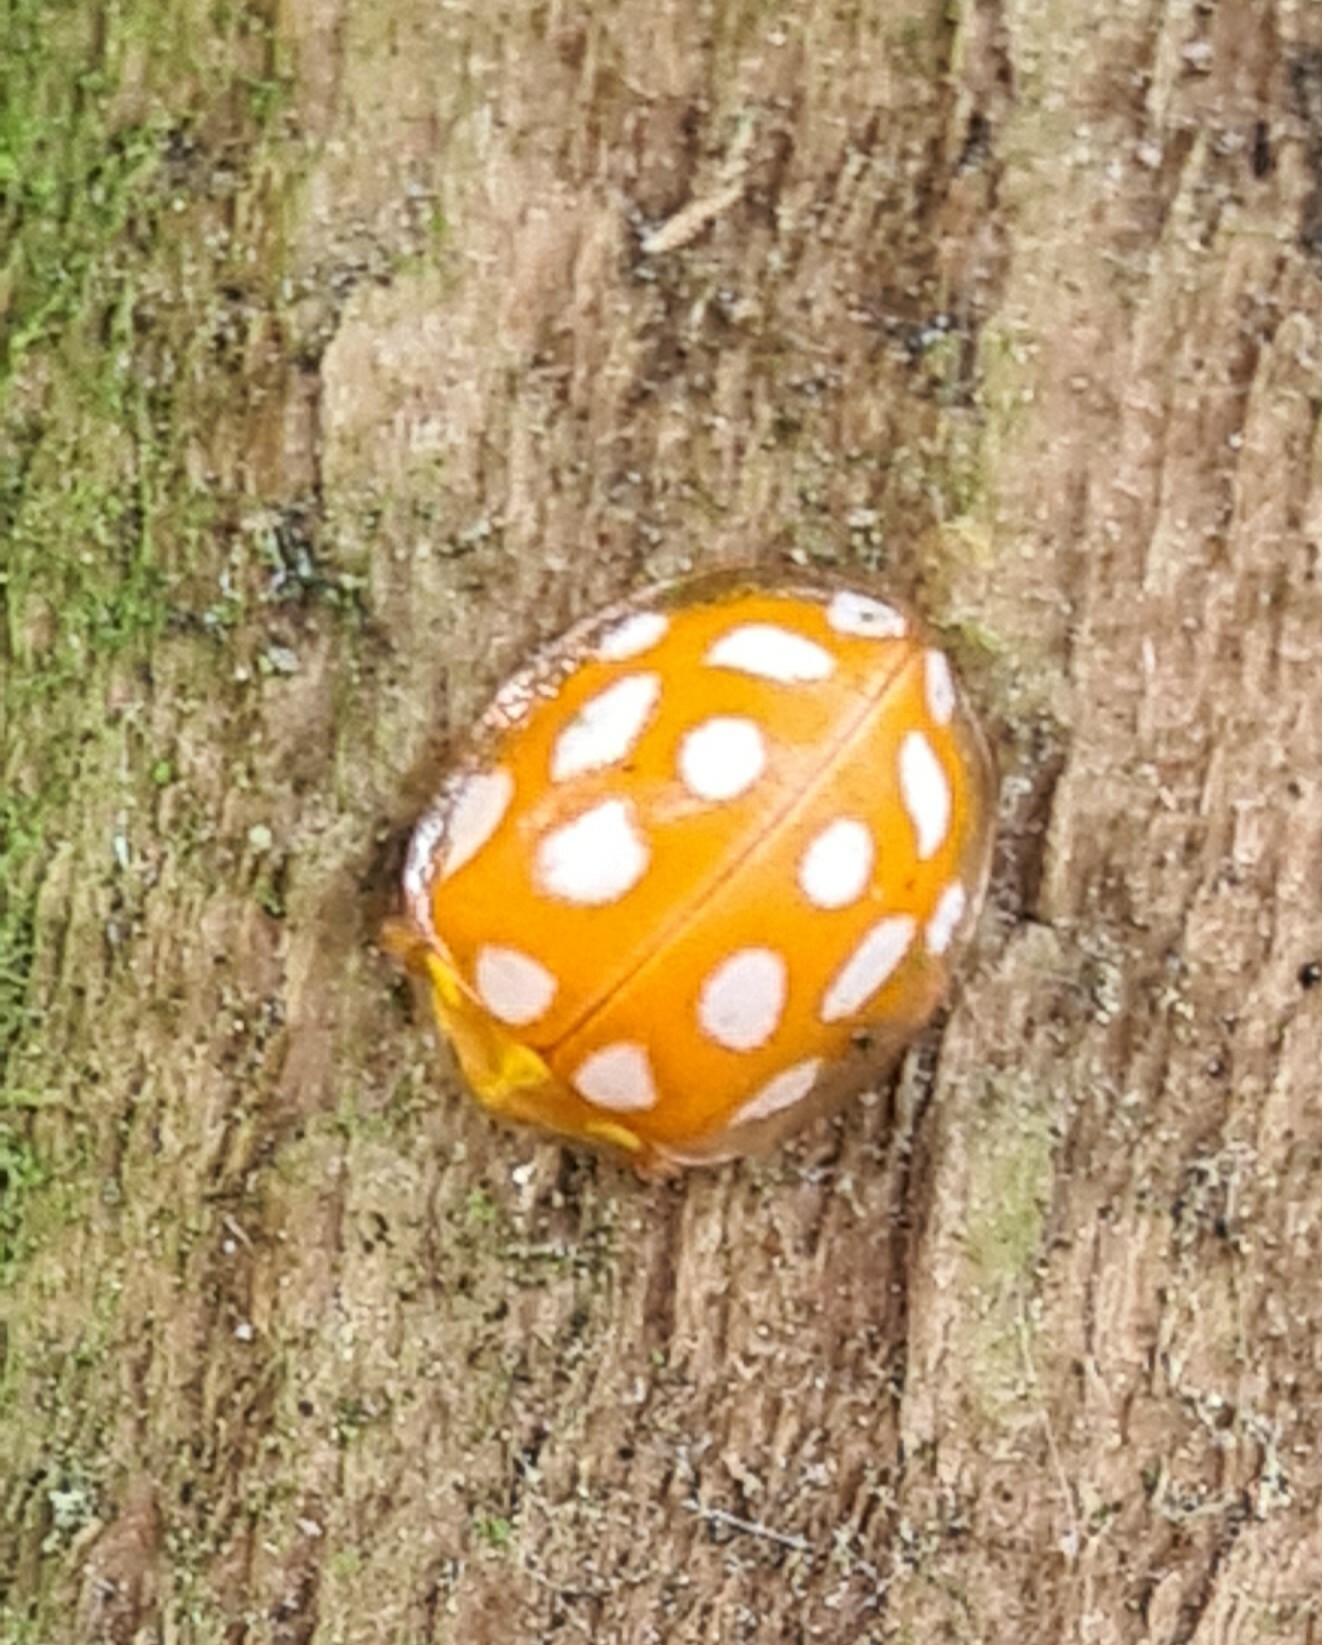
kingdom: Animalia
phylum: Arthropoda
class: Insecta
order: Coleoptera
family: Coccinellidae
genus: Halyzia
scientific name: Halyzia sedecimguttata
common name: Orange ladybird
